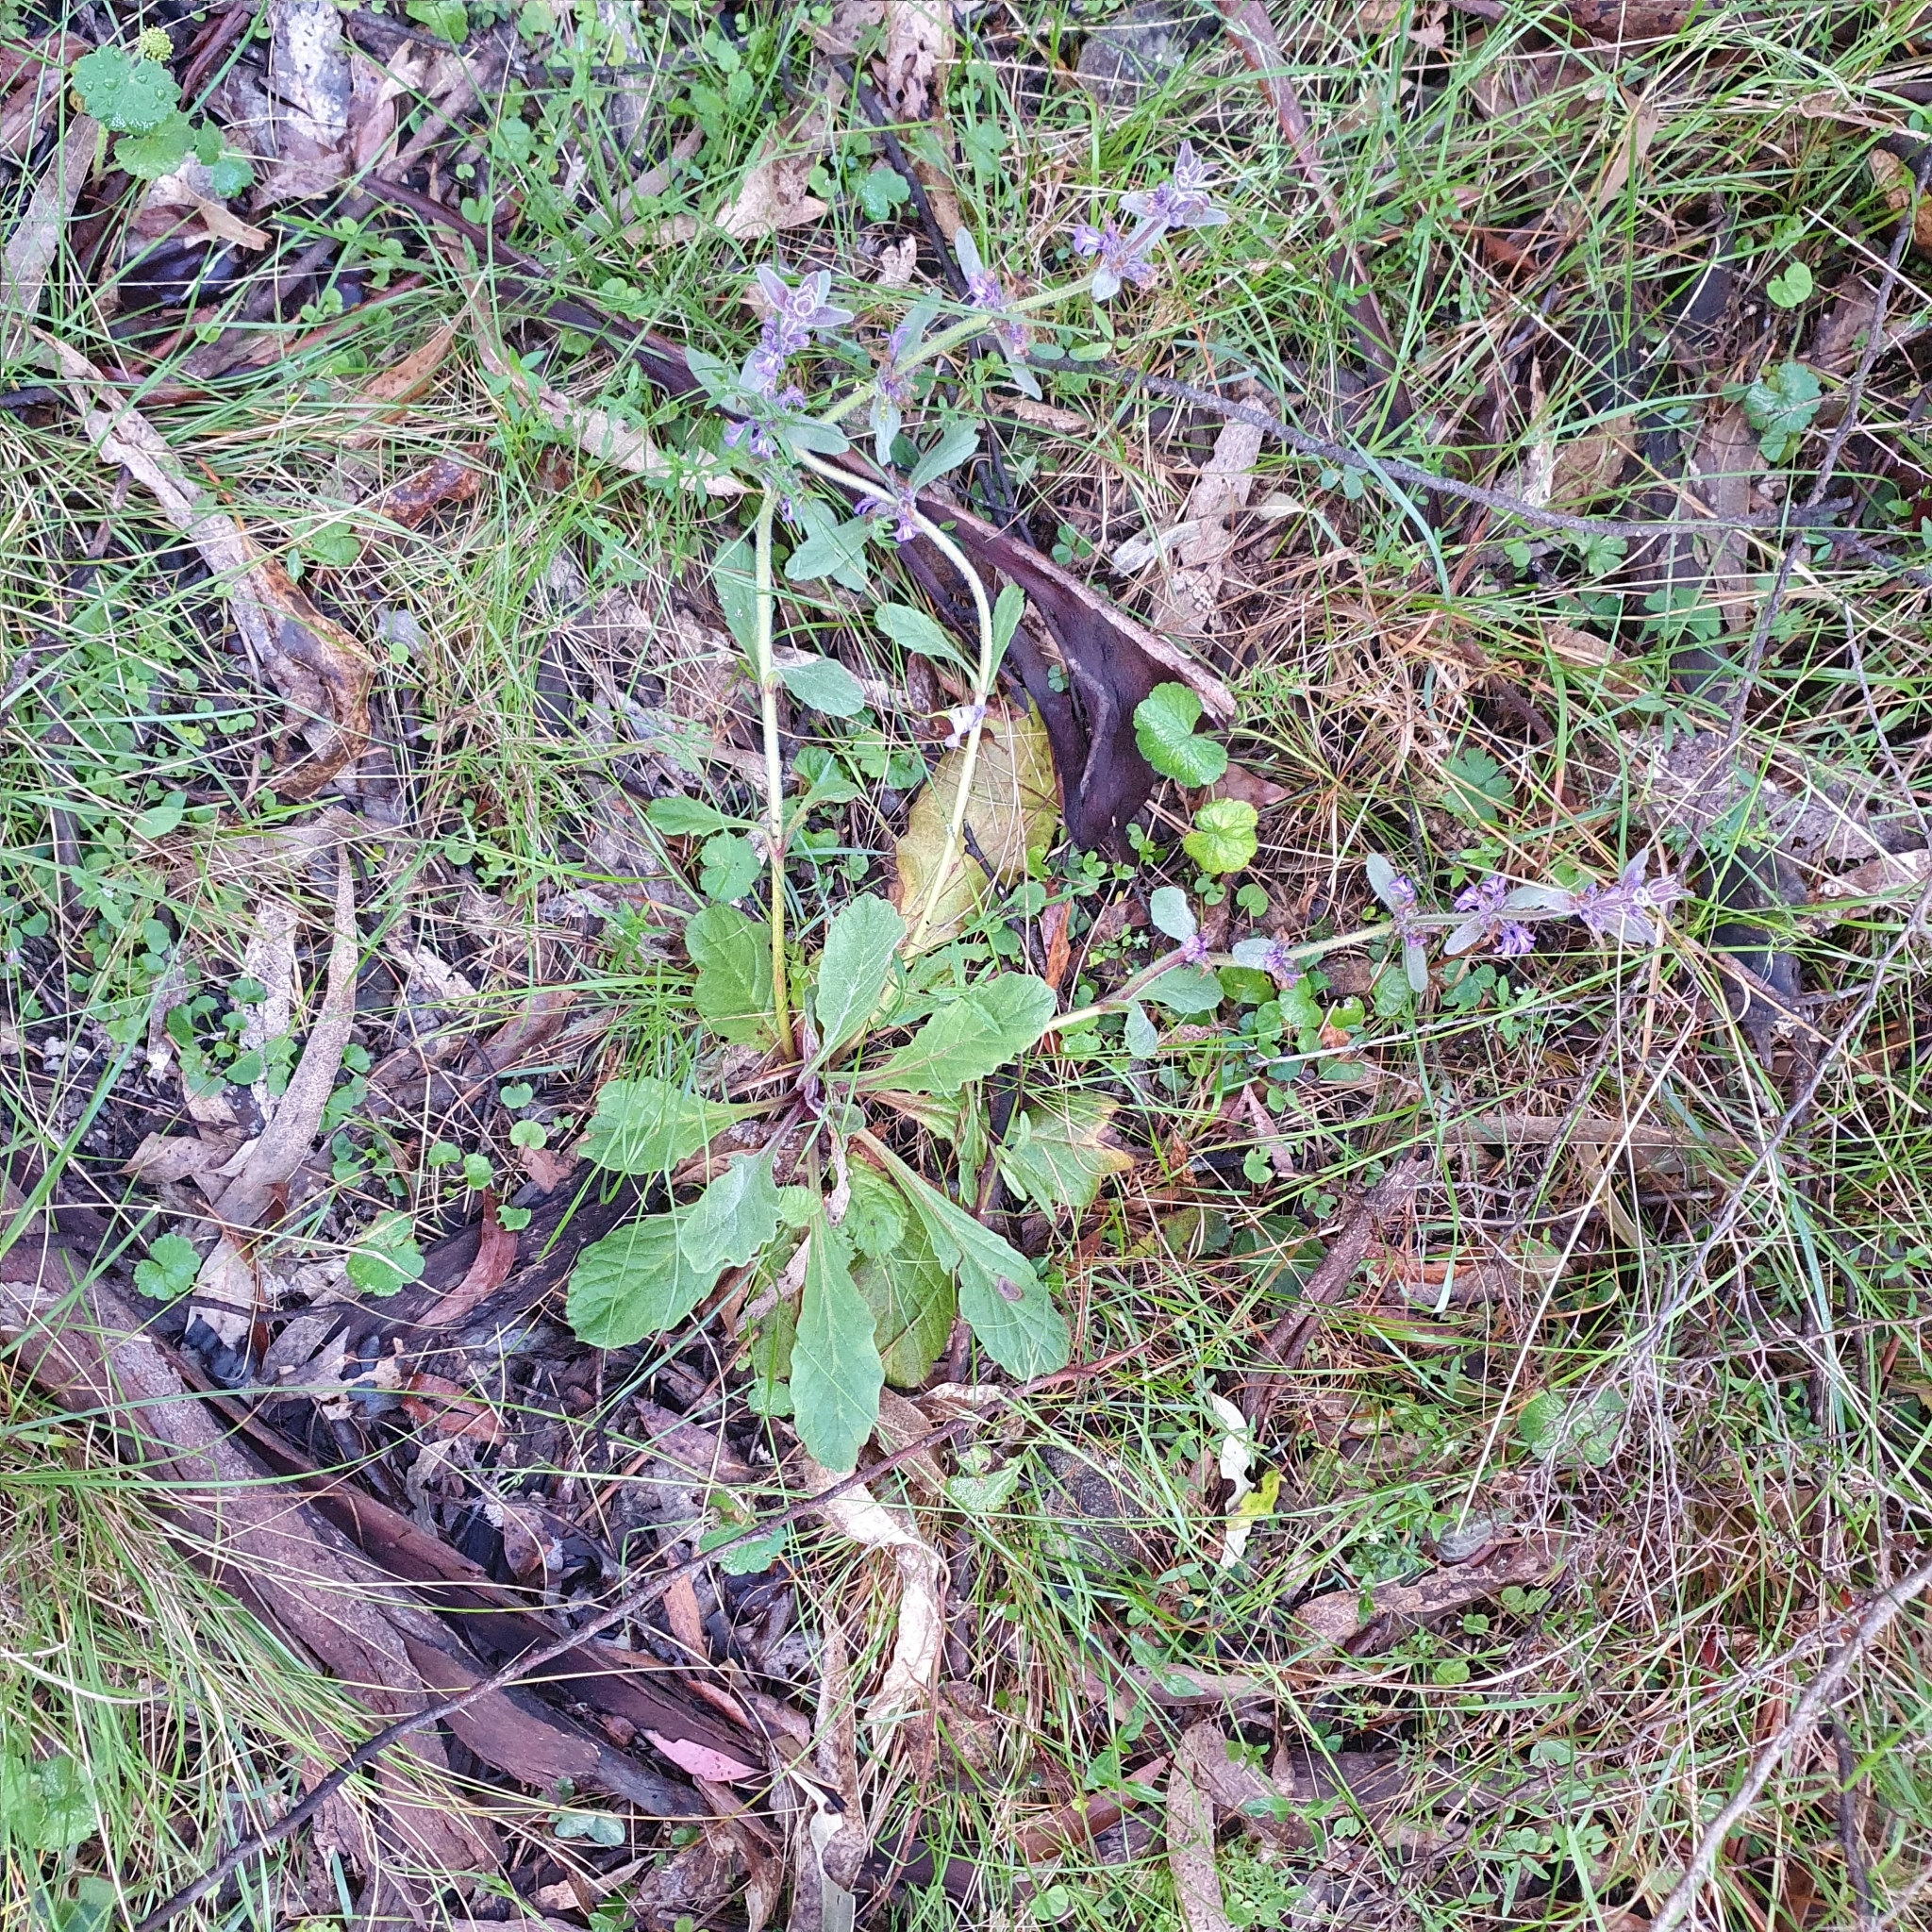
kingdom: Plantae
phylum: Tracheophyta
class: Magnoliopsida
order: Lamiales
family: Lamiaceae
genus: Ajuga
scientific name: Ajuga australis
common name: Australian bugle
